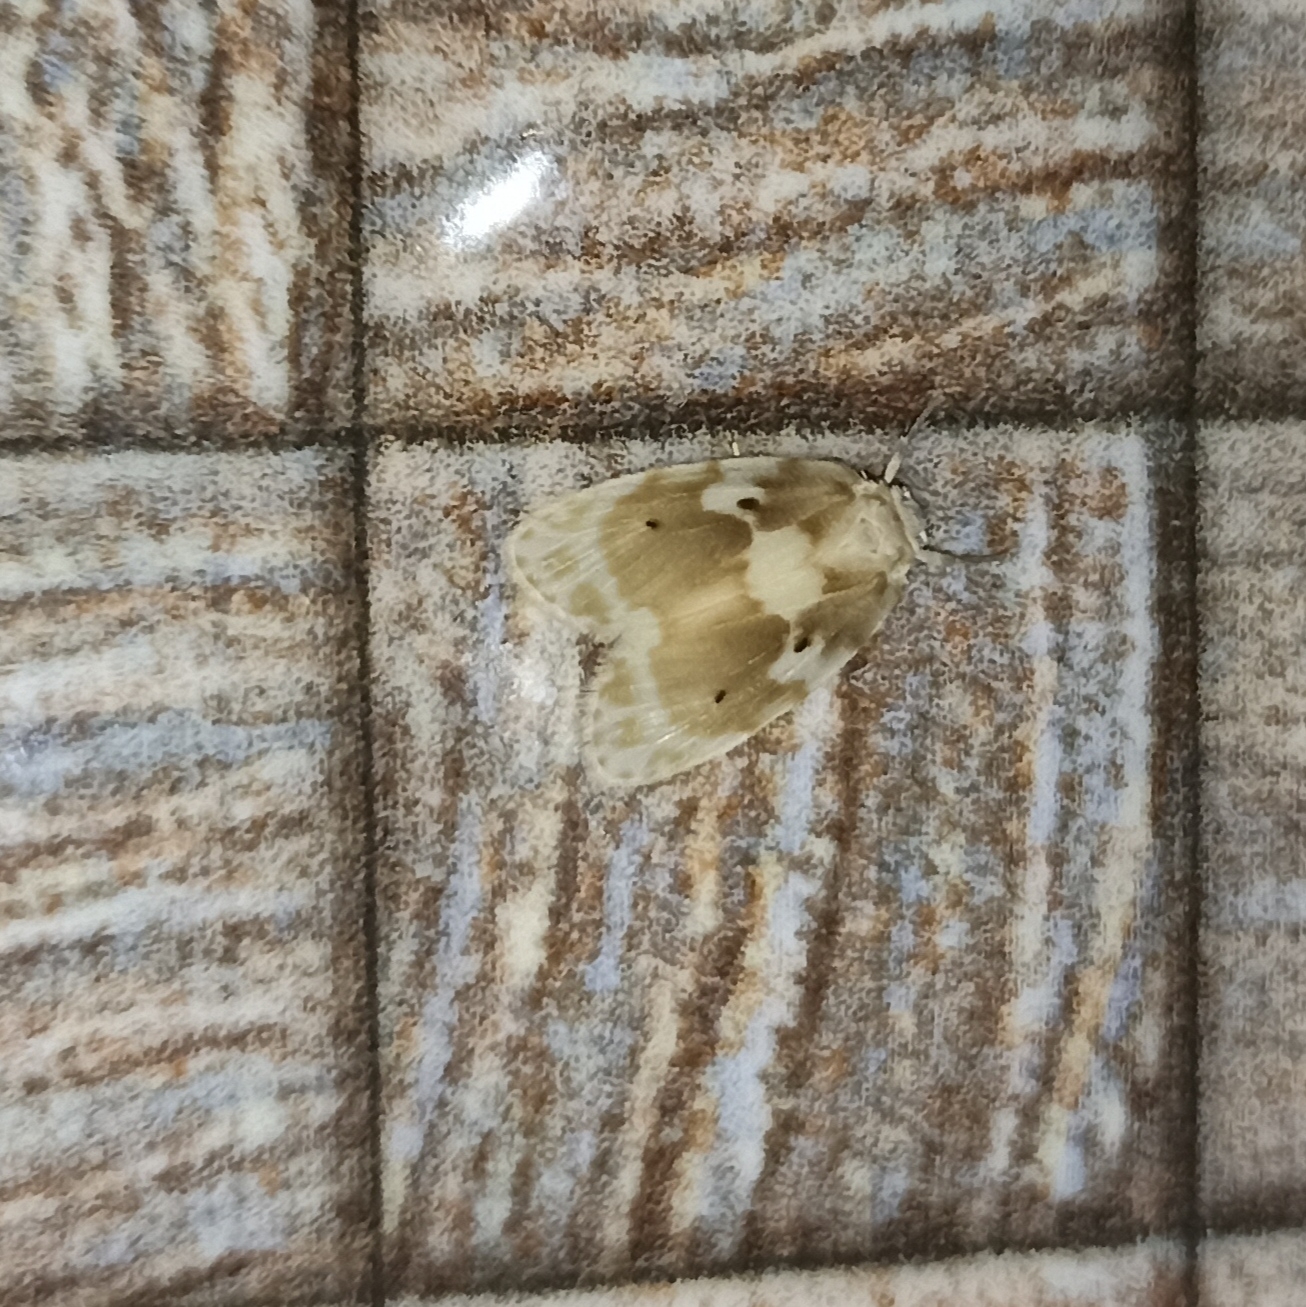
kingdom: Animalia
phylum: Arthropoda
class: Insecta
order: Lepidoptera
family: Erebidae
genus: Schistophleps
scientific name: Schistophleps pentoveinlata
